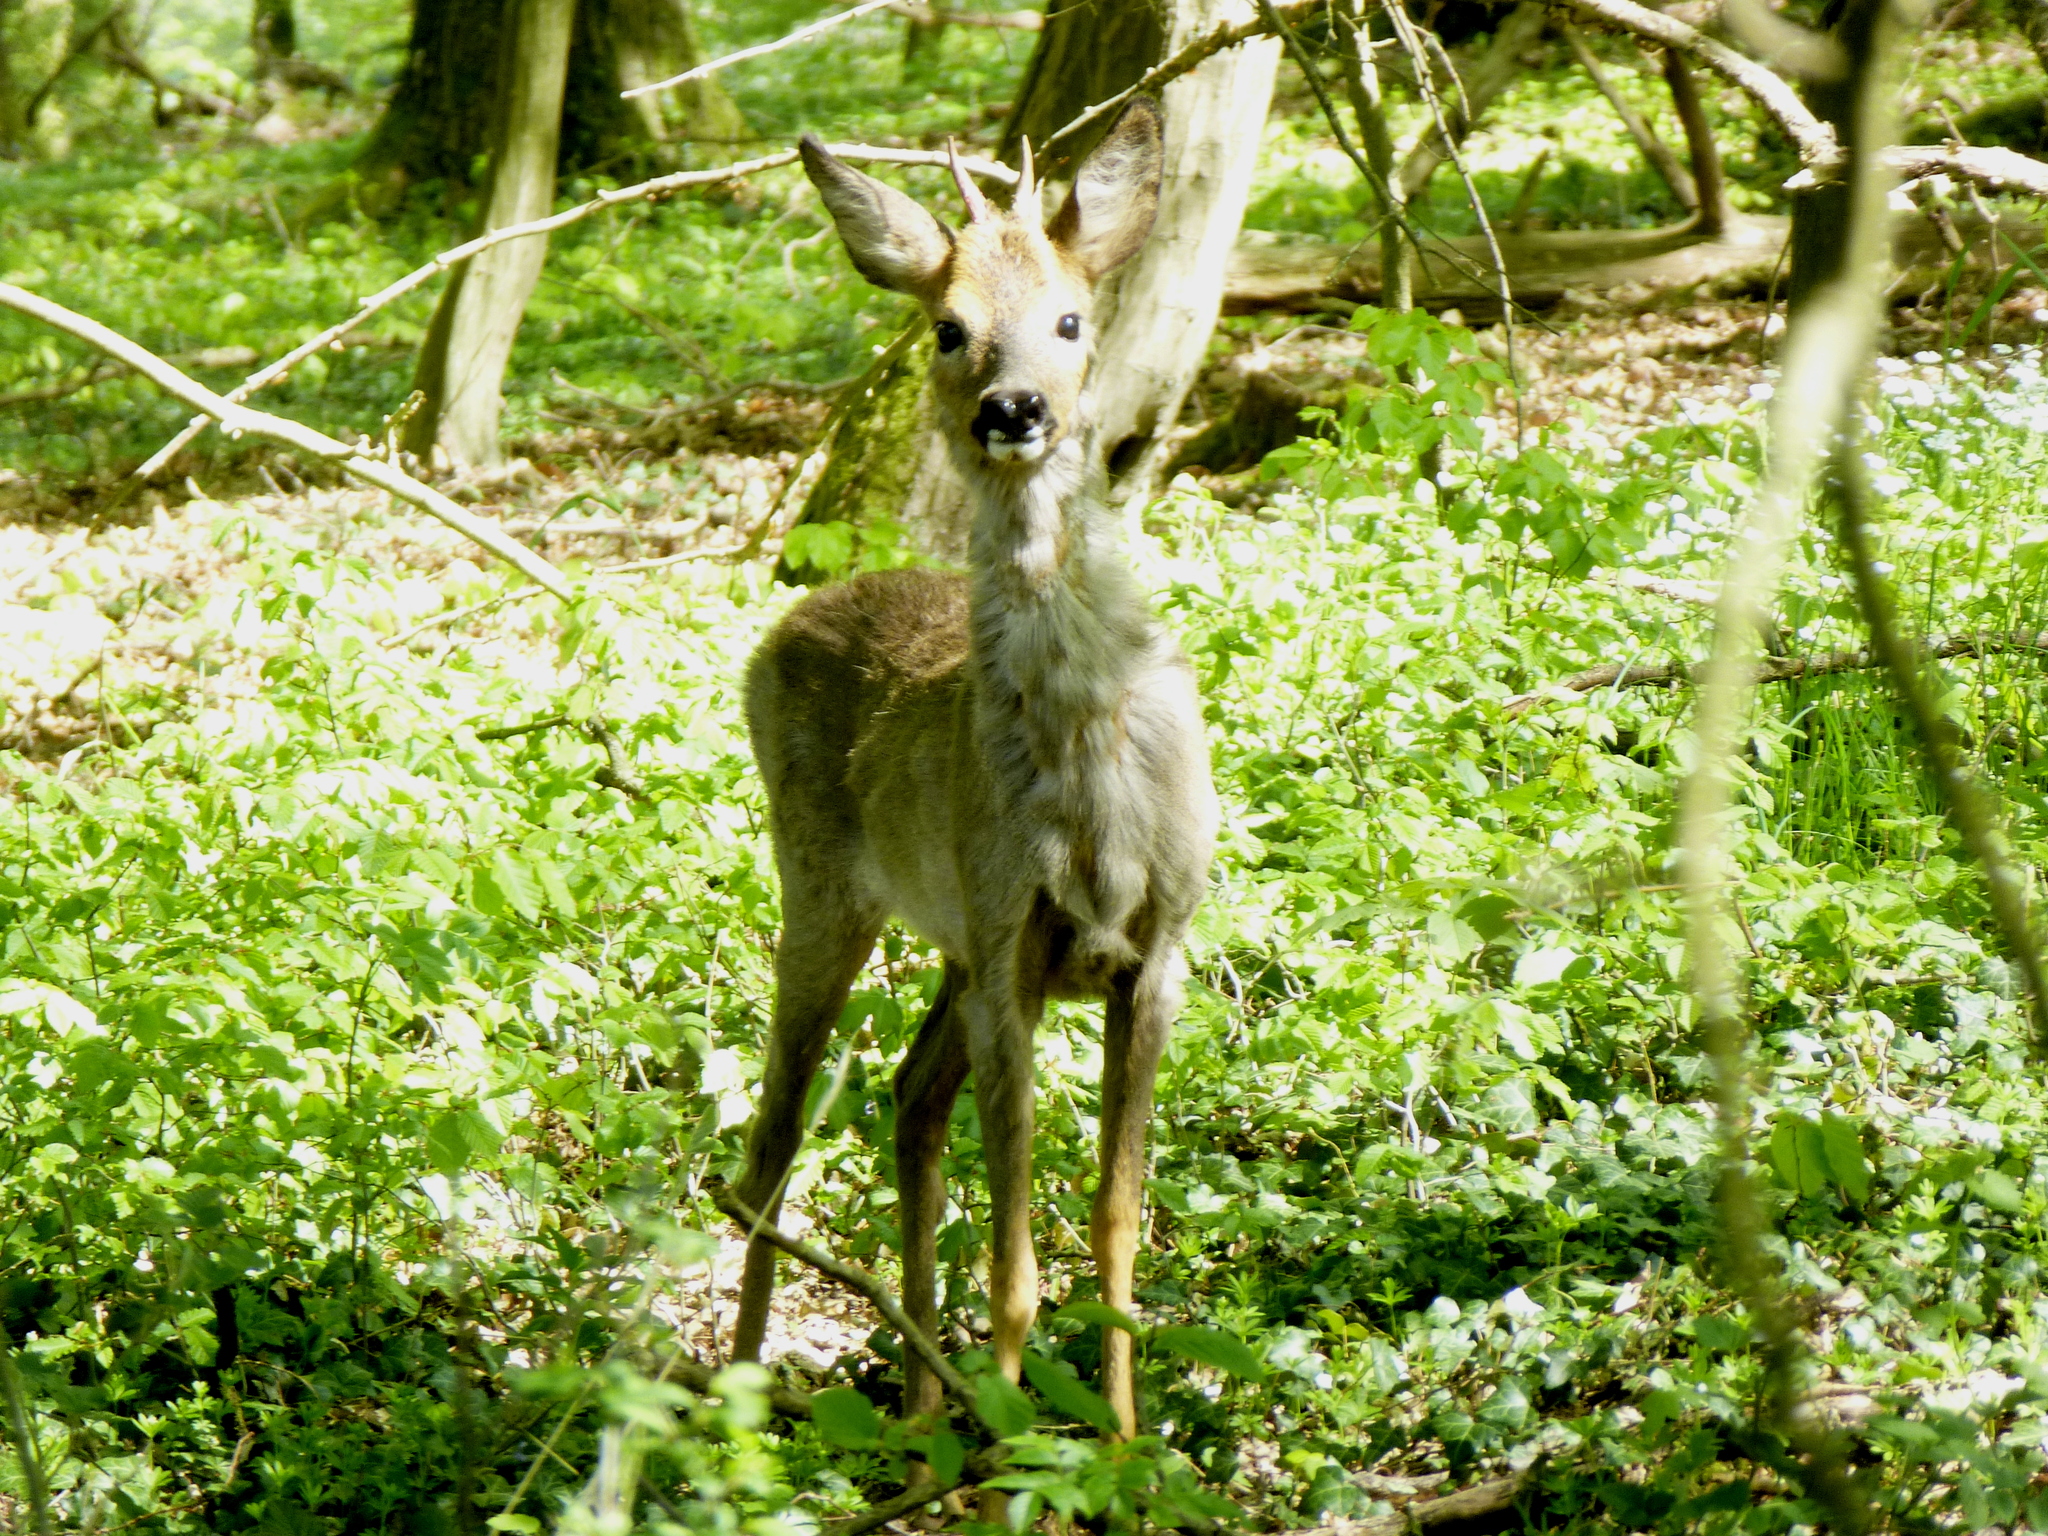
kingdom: Animalia
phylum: Chordata
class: Mammalia
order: Artiodactyla
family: Cervidae
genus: Capreolus
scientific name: Capreolus capreolus
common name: Western roe deer
